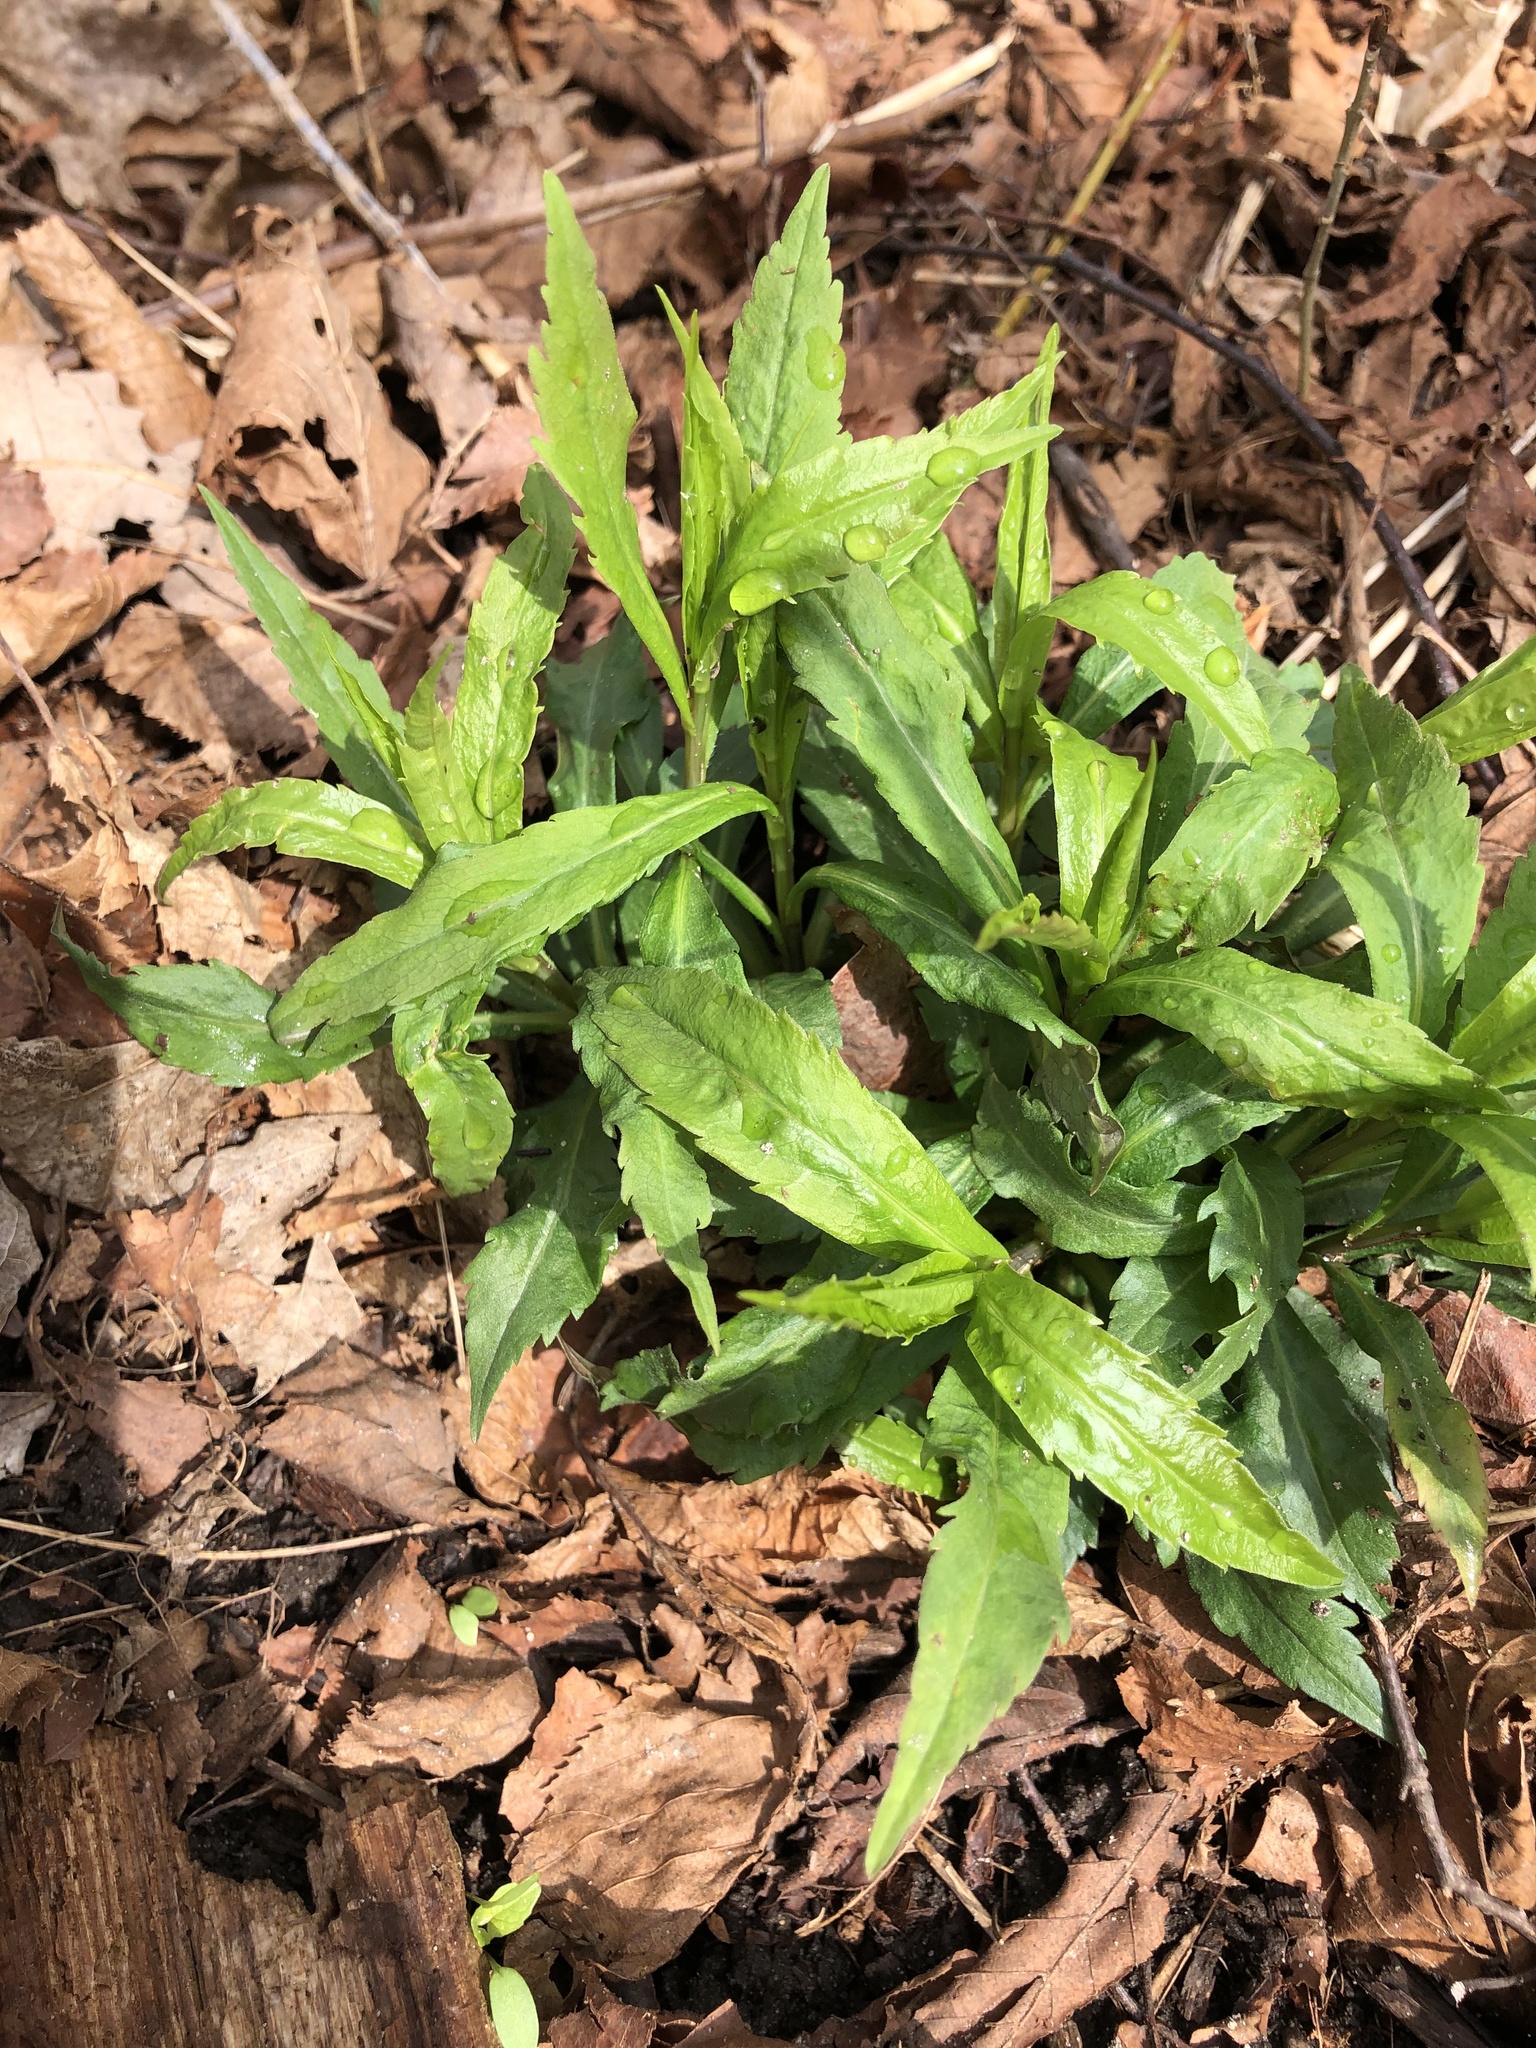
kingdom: Plantae
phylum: Tracheophyta
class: Magnoliopsida
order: Asterales
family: Asteraceae
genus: Solidago
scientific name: Solidago caesia
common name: Woodland goldenrod
